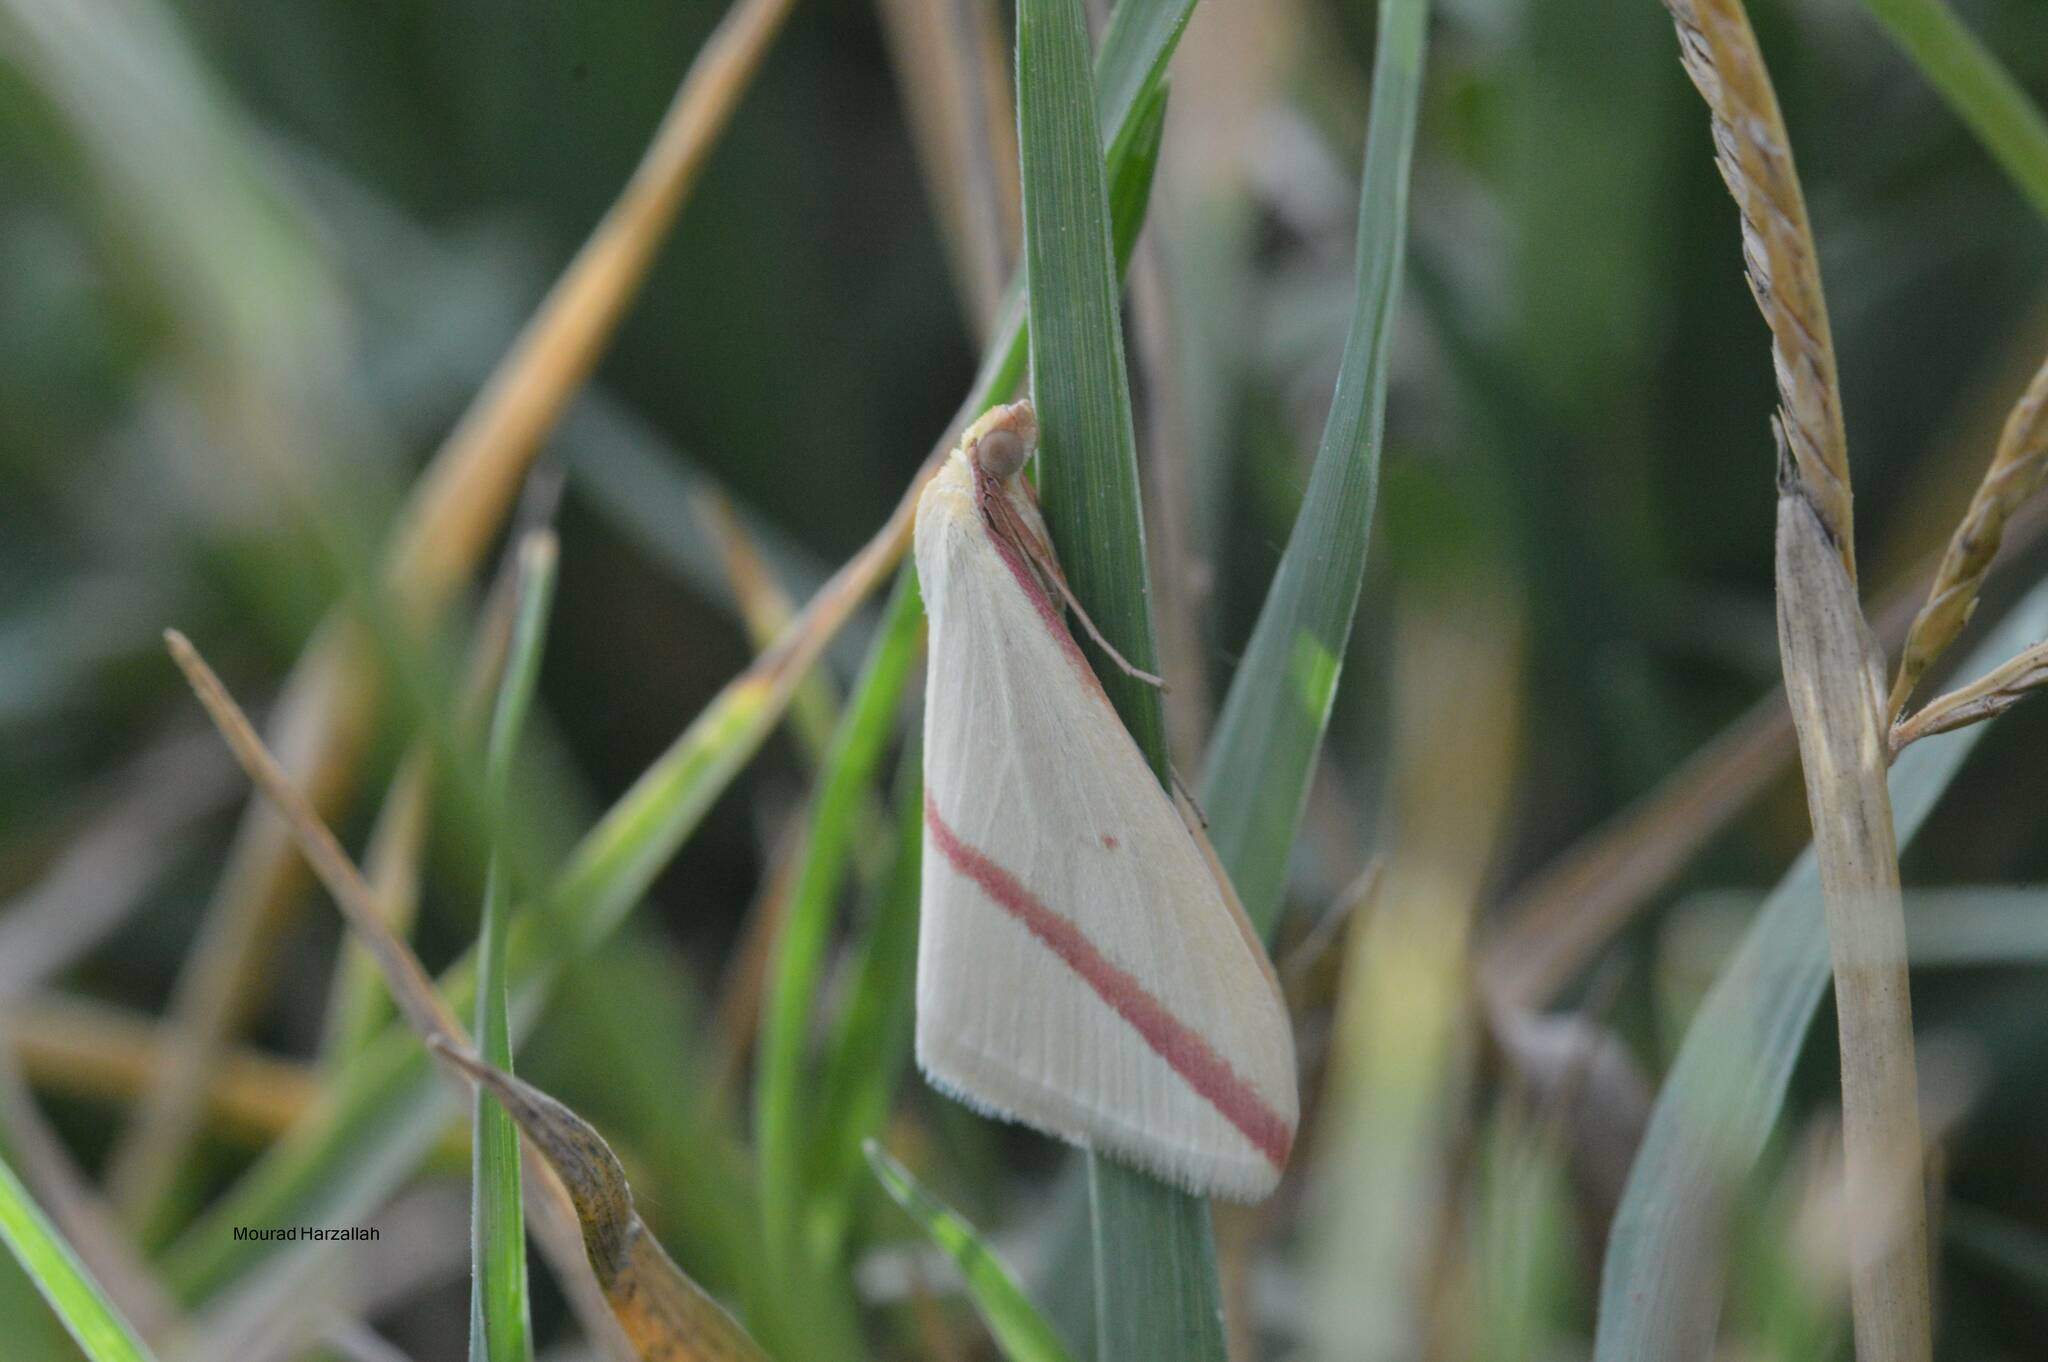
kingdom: Animalia
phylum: Arthropoda
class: Insecta
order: Lepidoptera
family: Geometridae
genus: Rhodometra
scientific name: Rhodometra sacraria
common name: Vestal
